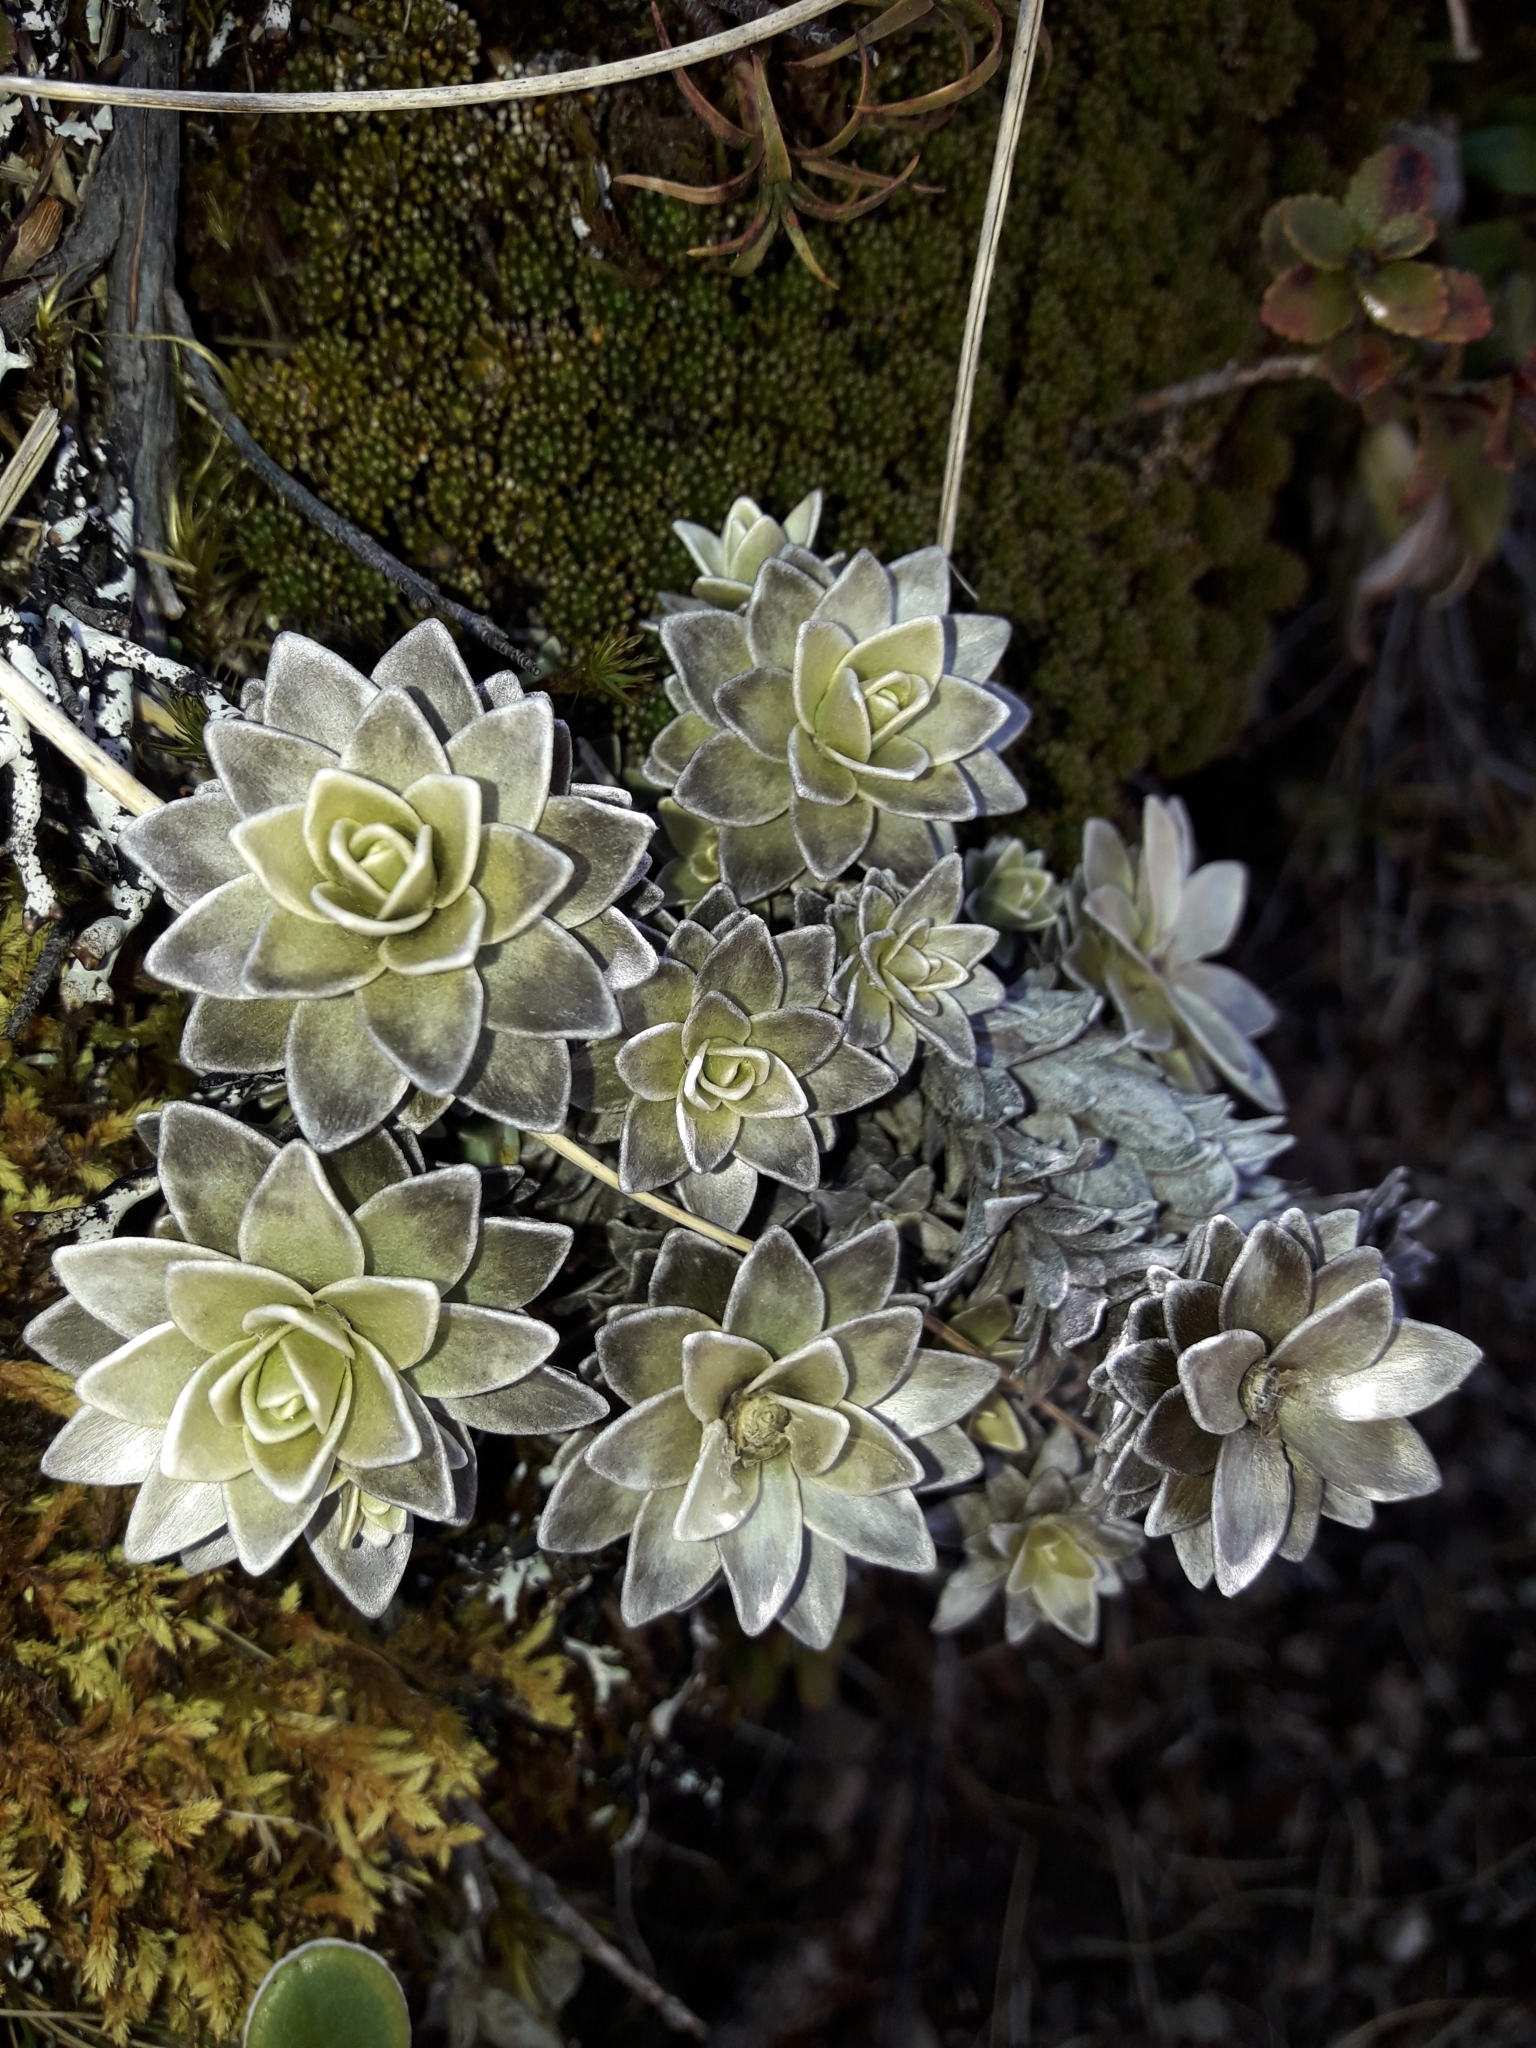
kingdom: Plantae
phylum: Tracheophyta
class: Magnoliopsida
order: Asterales
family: Asteraceae
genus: Leucogenes
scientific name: Leucogenes leontopodium
